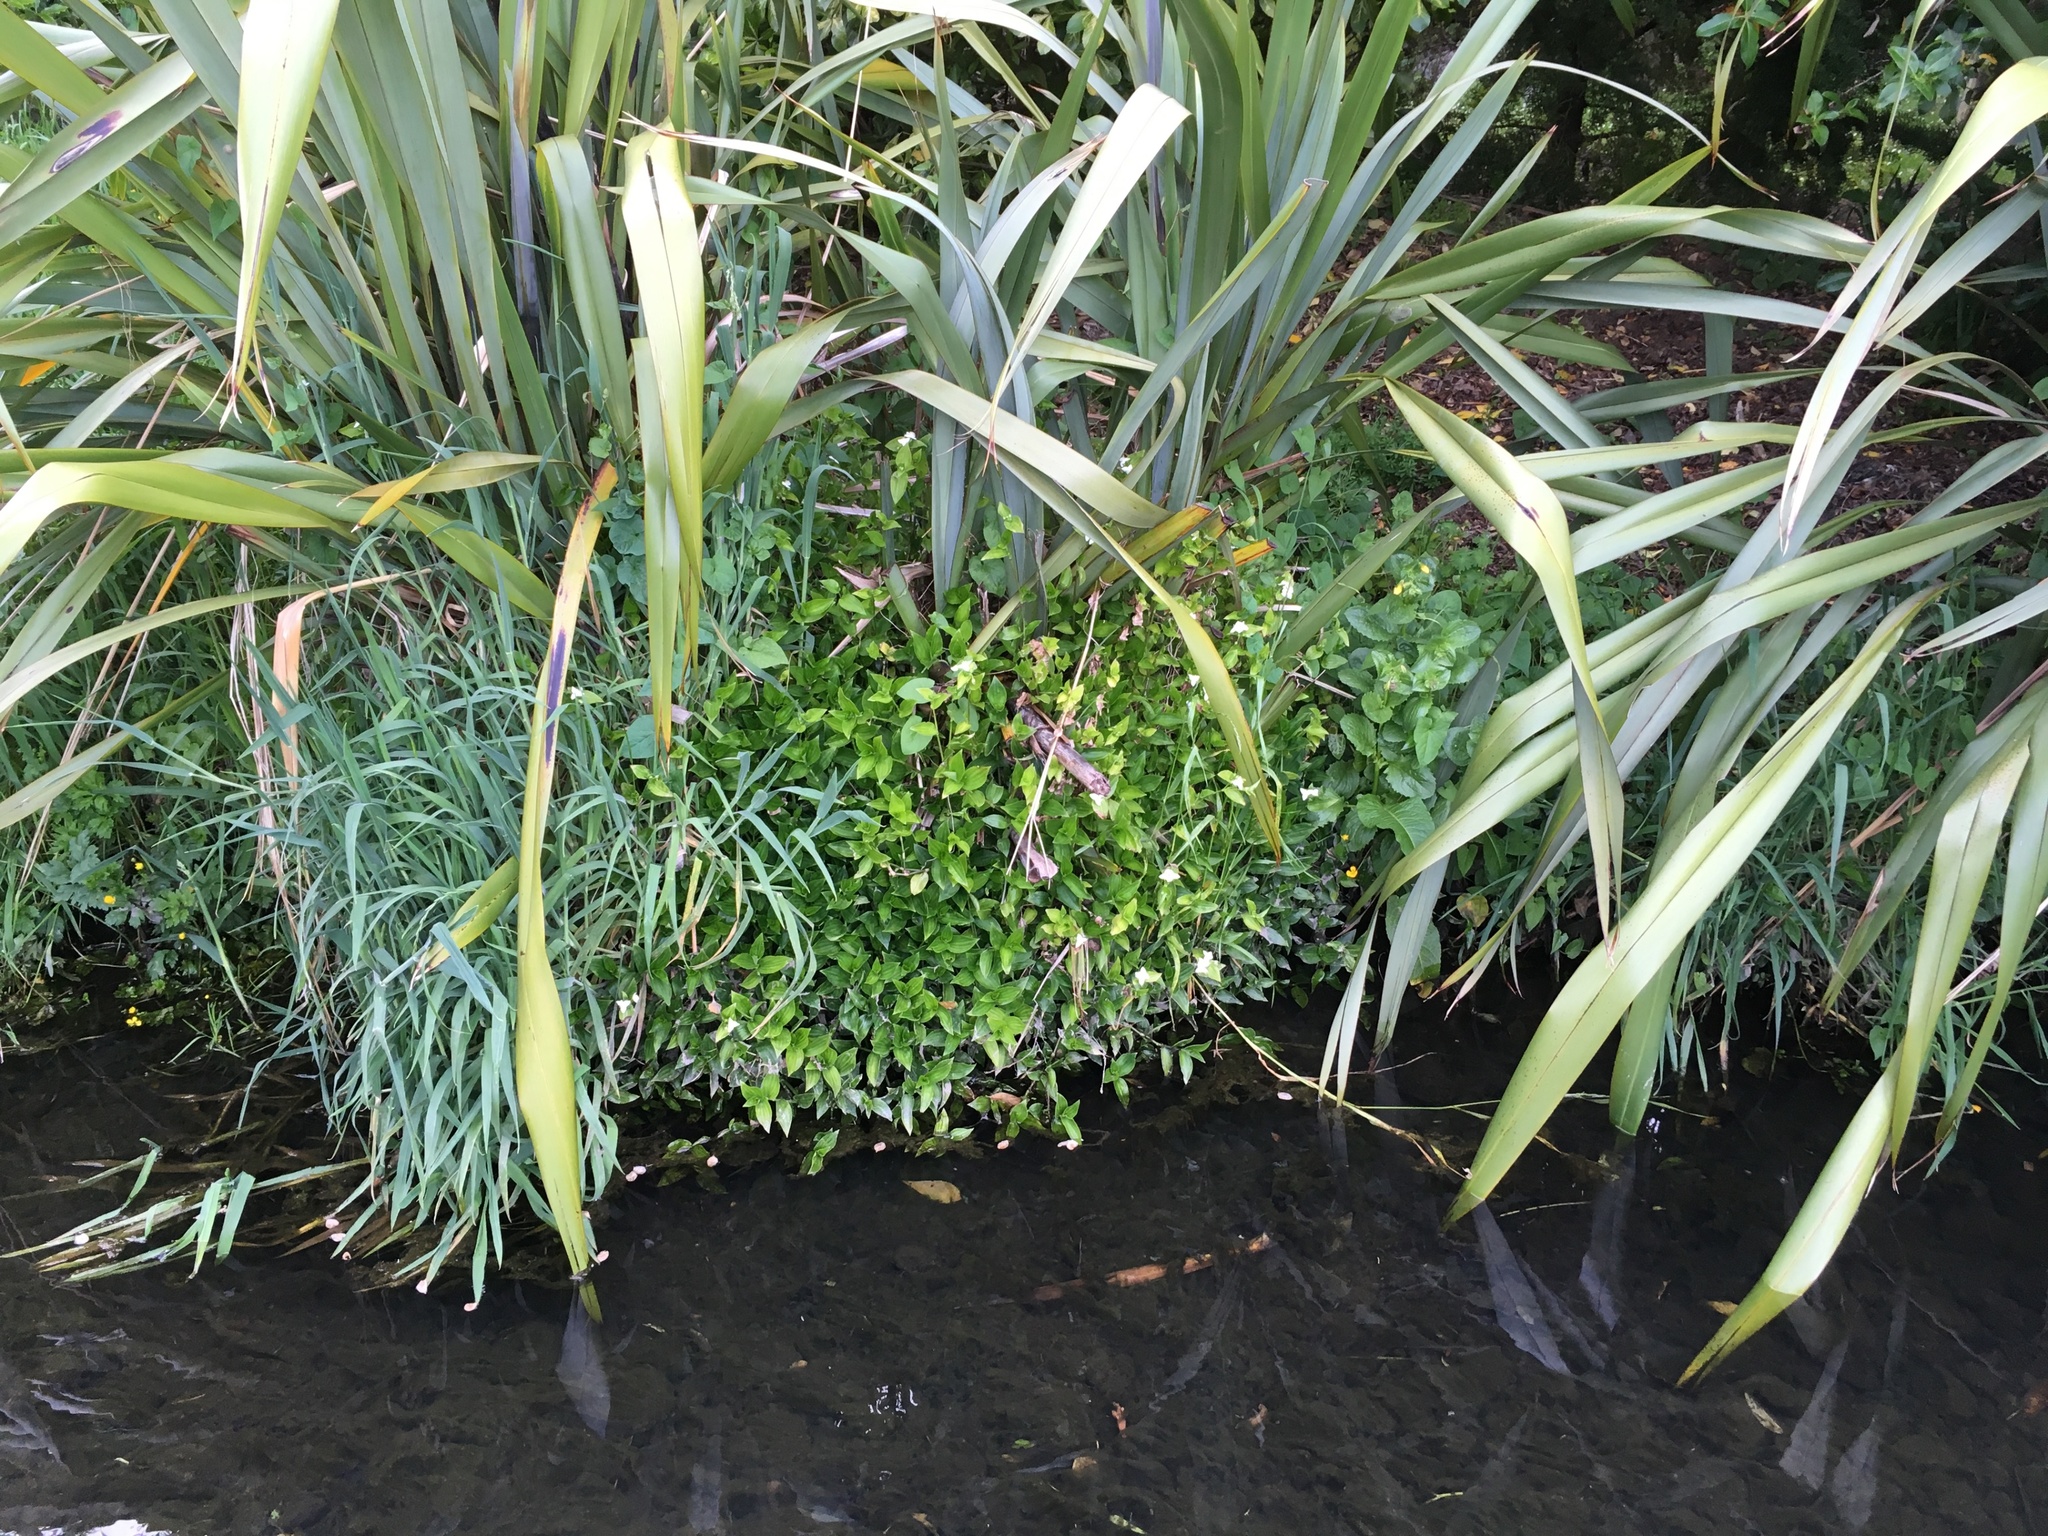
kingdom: Plantae
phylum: Tracheophyta
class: Liliopsida
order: Commelinales
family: Commelinaceae
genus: Tradescantia
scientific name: Tradescantia fluminensis
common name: Wandering-jew
